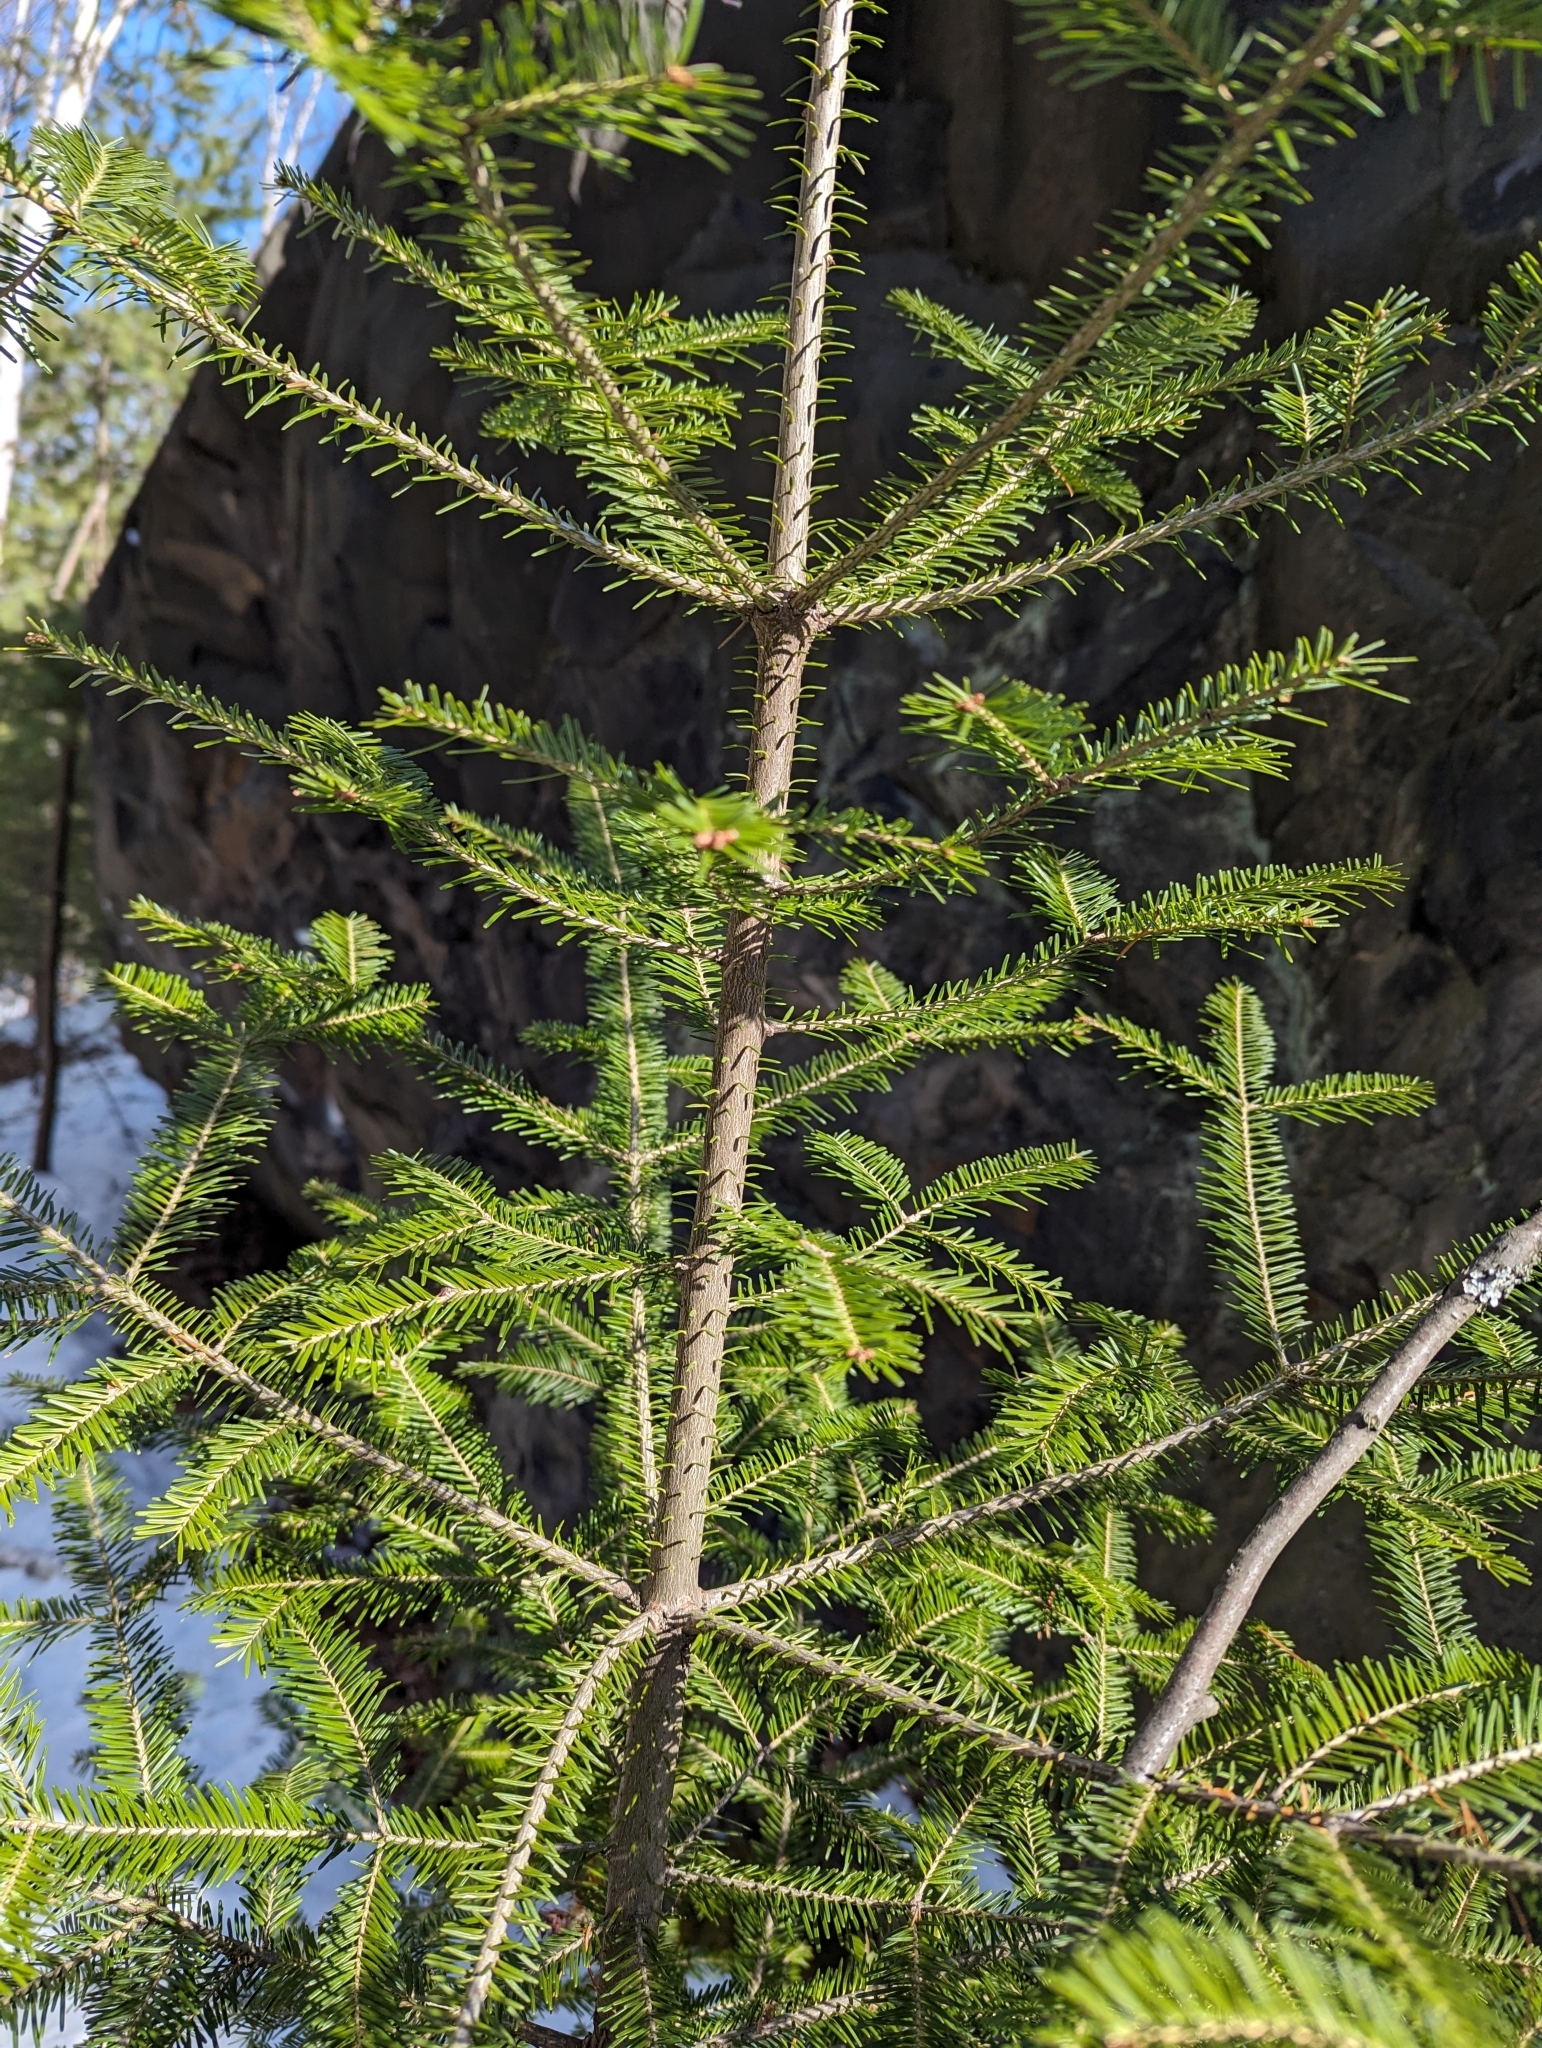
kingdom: Plantae
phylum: Tracheophyta
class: Pinopsida
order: Pinales
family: Pinaceae
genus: Abies
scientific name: Abies balsamea
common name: Balsam fir
